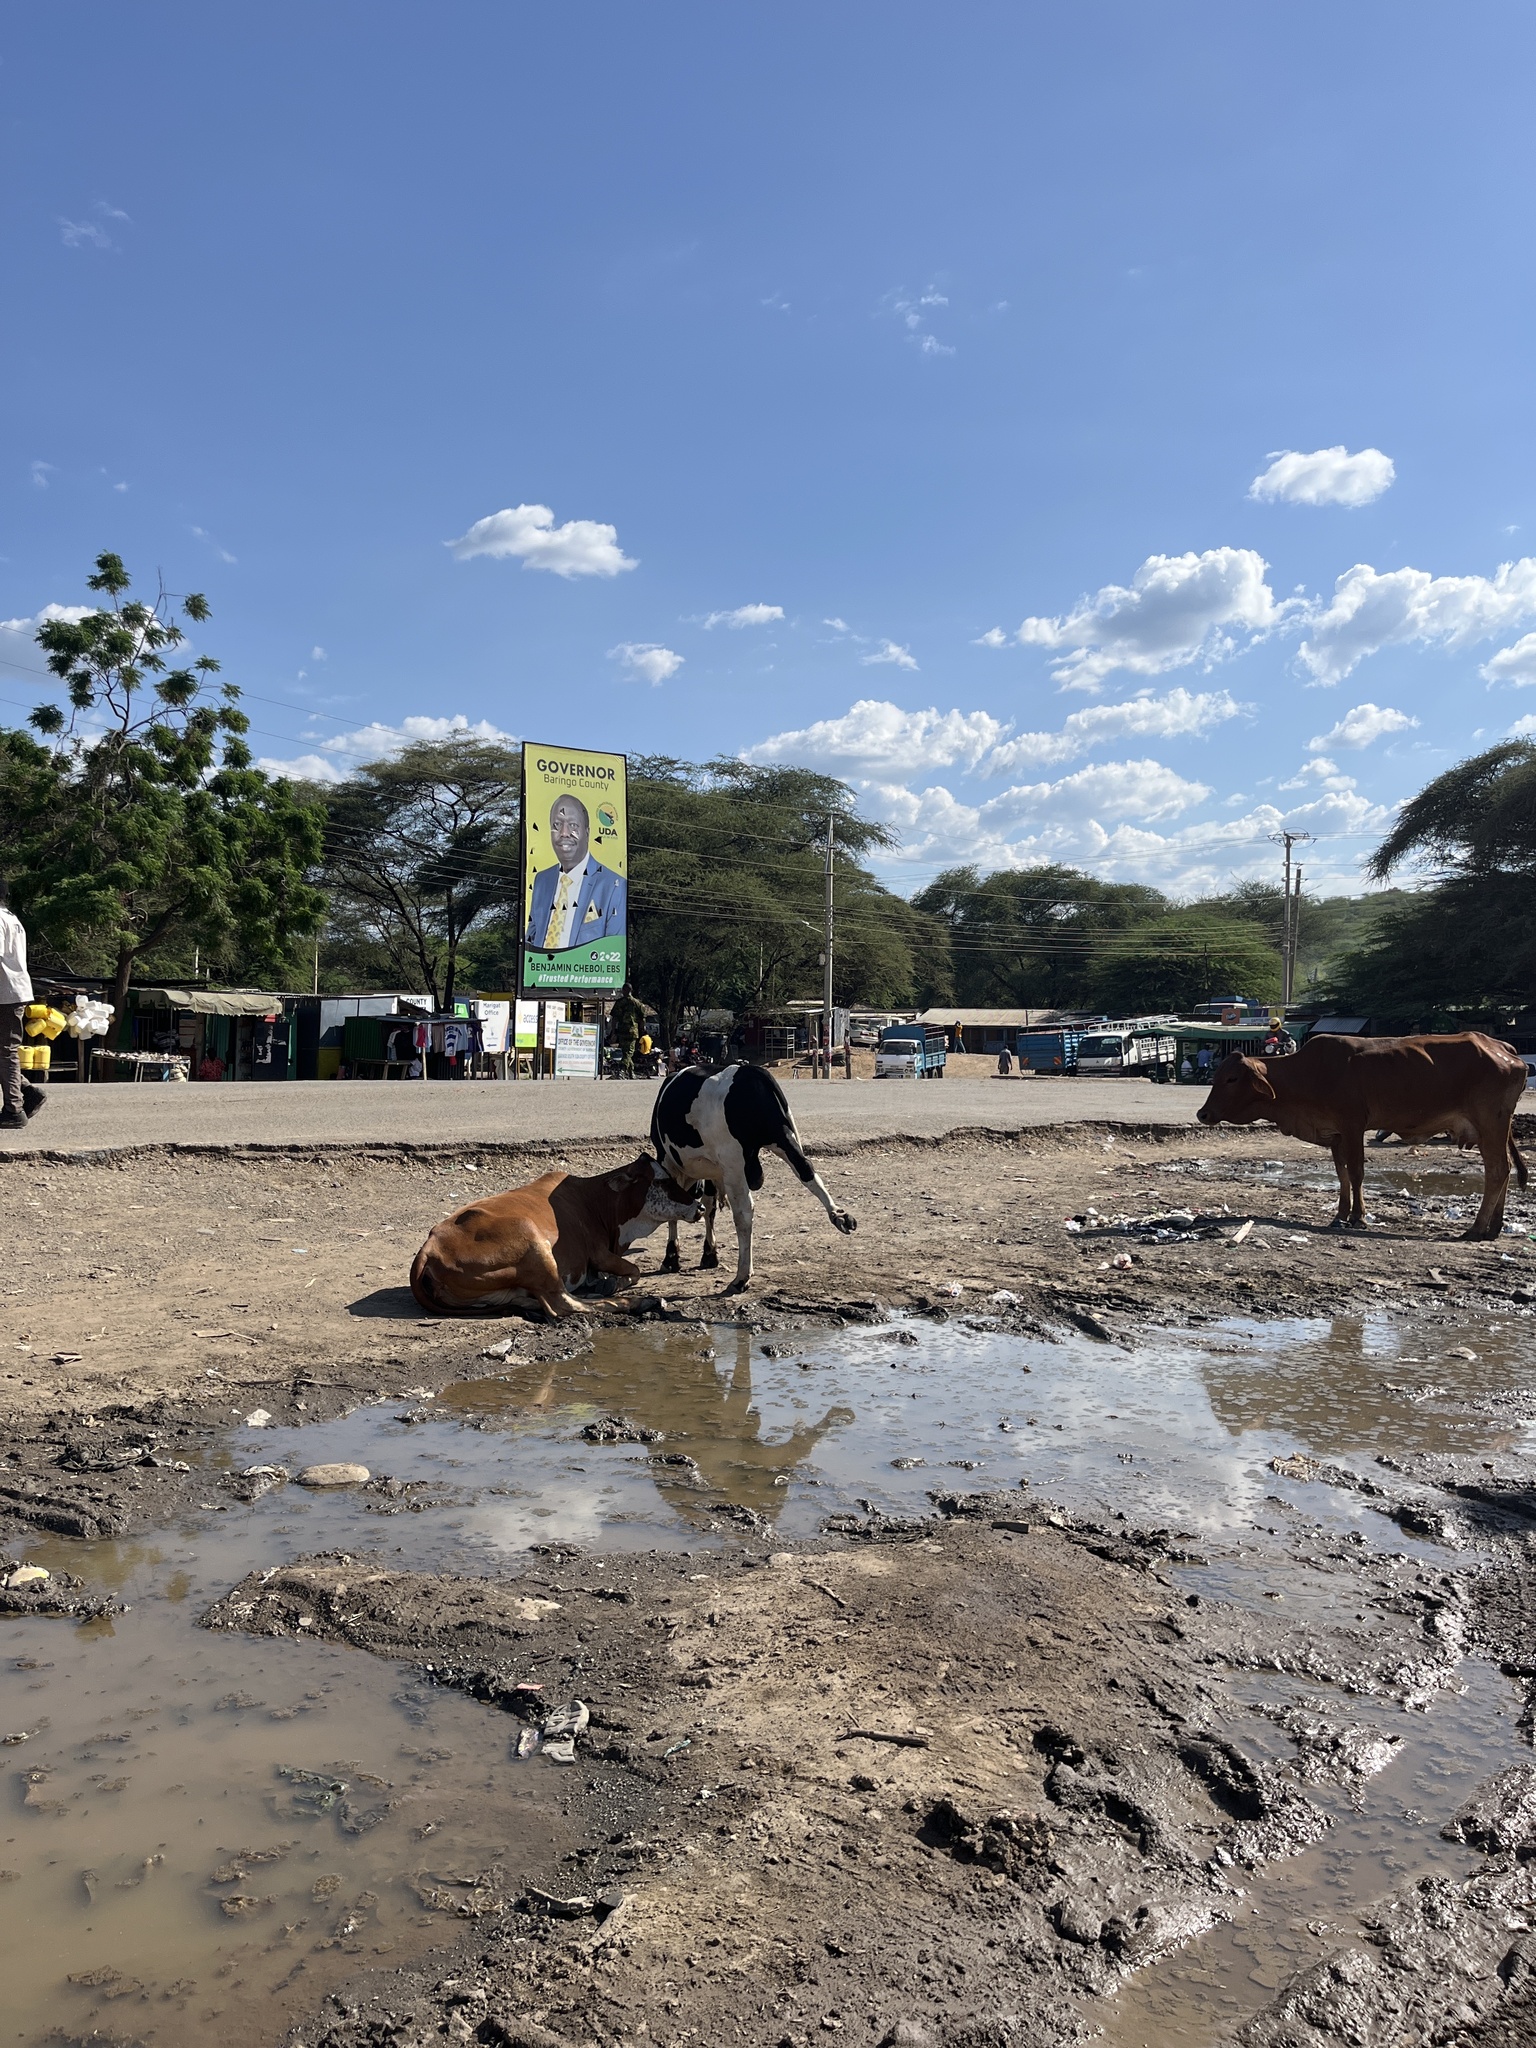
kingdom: Animalia
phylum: Chordata
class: Mammalia
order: Artiodactyla
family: Bovidae
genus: Bos
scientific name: Bos
